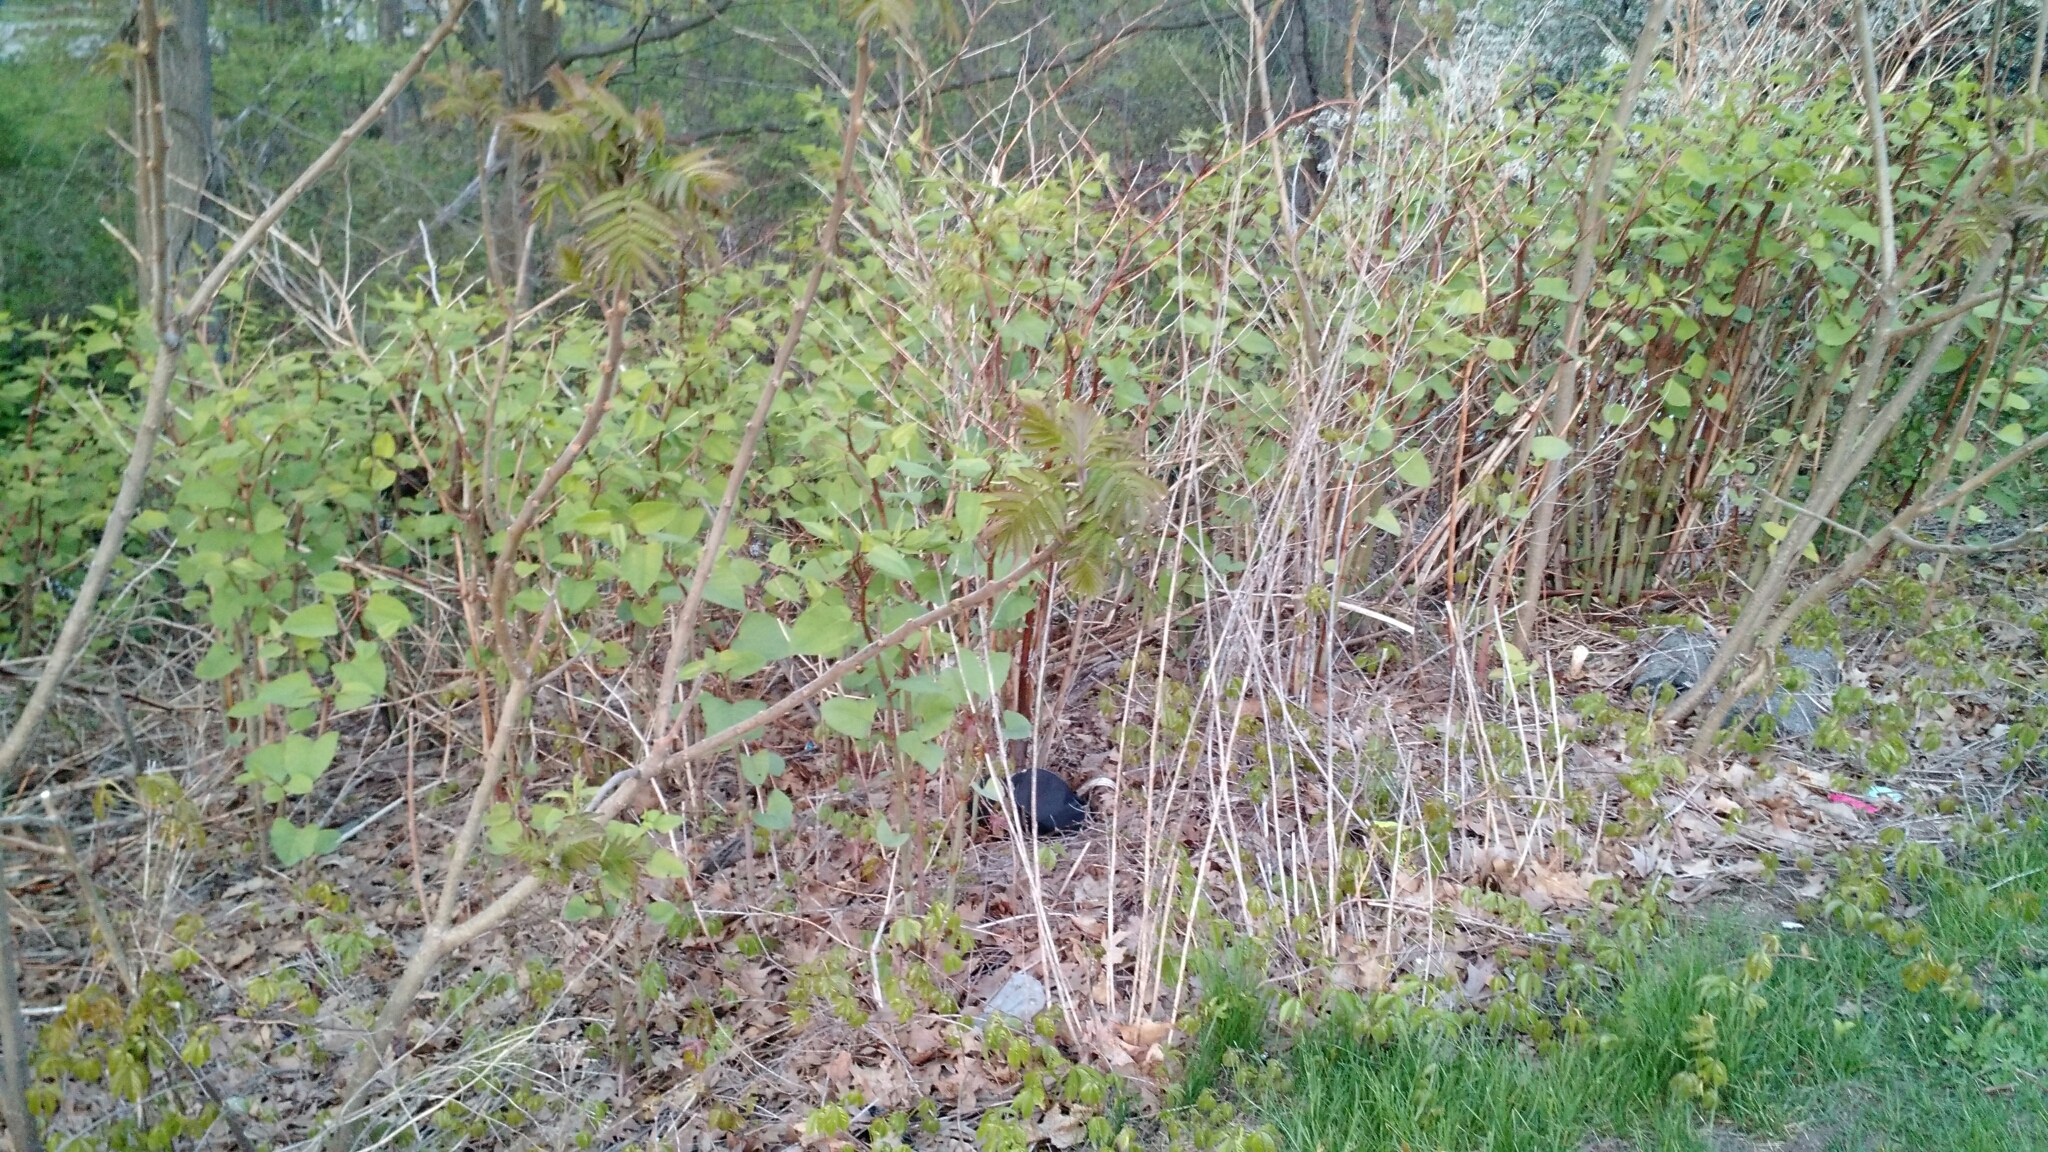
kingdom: Plantae
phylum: Tracheophyta
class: Magnoliopsida
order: Caryophyllales
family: Polygonaceae
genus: Reynoutria
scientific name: Reynoutria japonica
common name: Japanese knotweed
